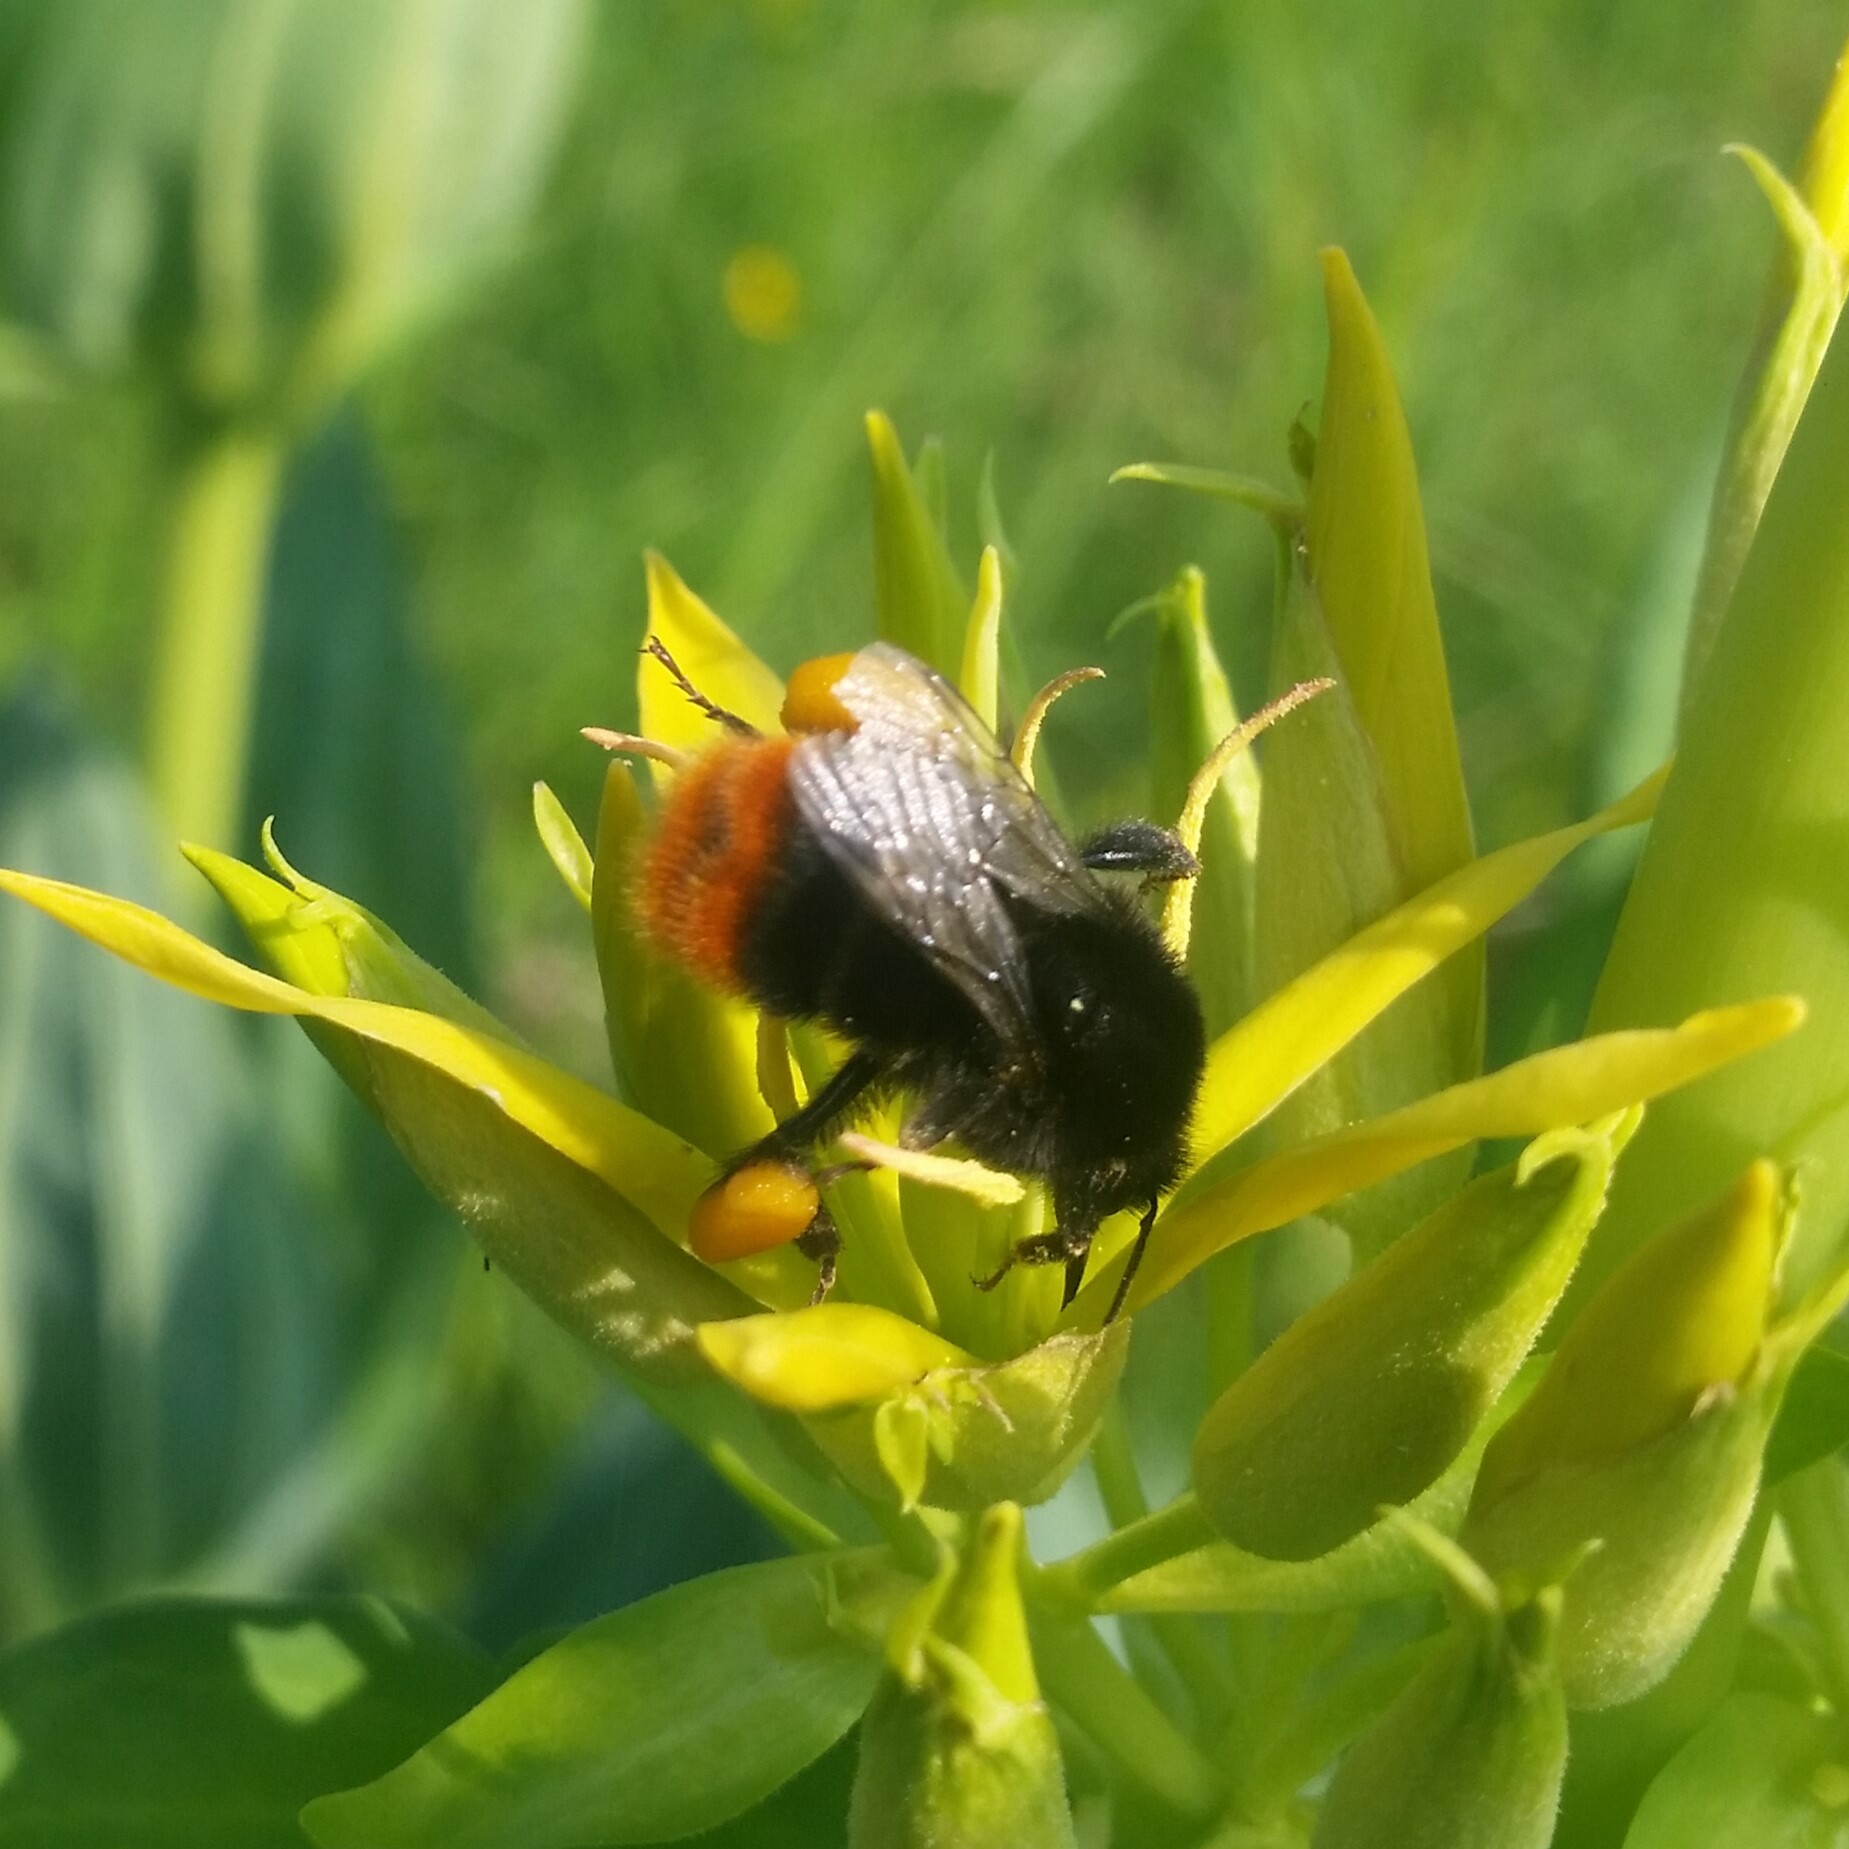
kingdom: Animalia
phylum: Arthropoda
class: Insecta
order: Hymenoptera
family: Apidae
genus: Bombus
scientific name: Bombus lapidarius
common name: Large red-tailed humble-bee
